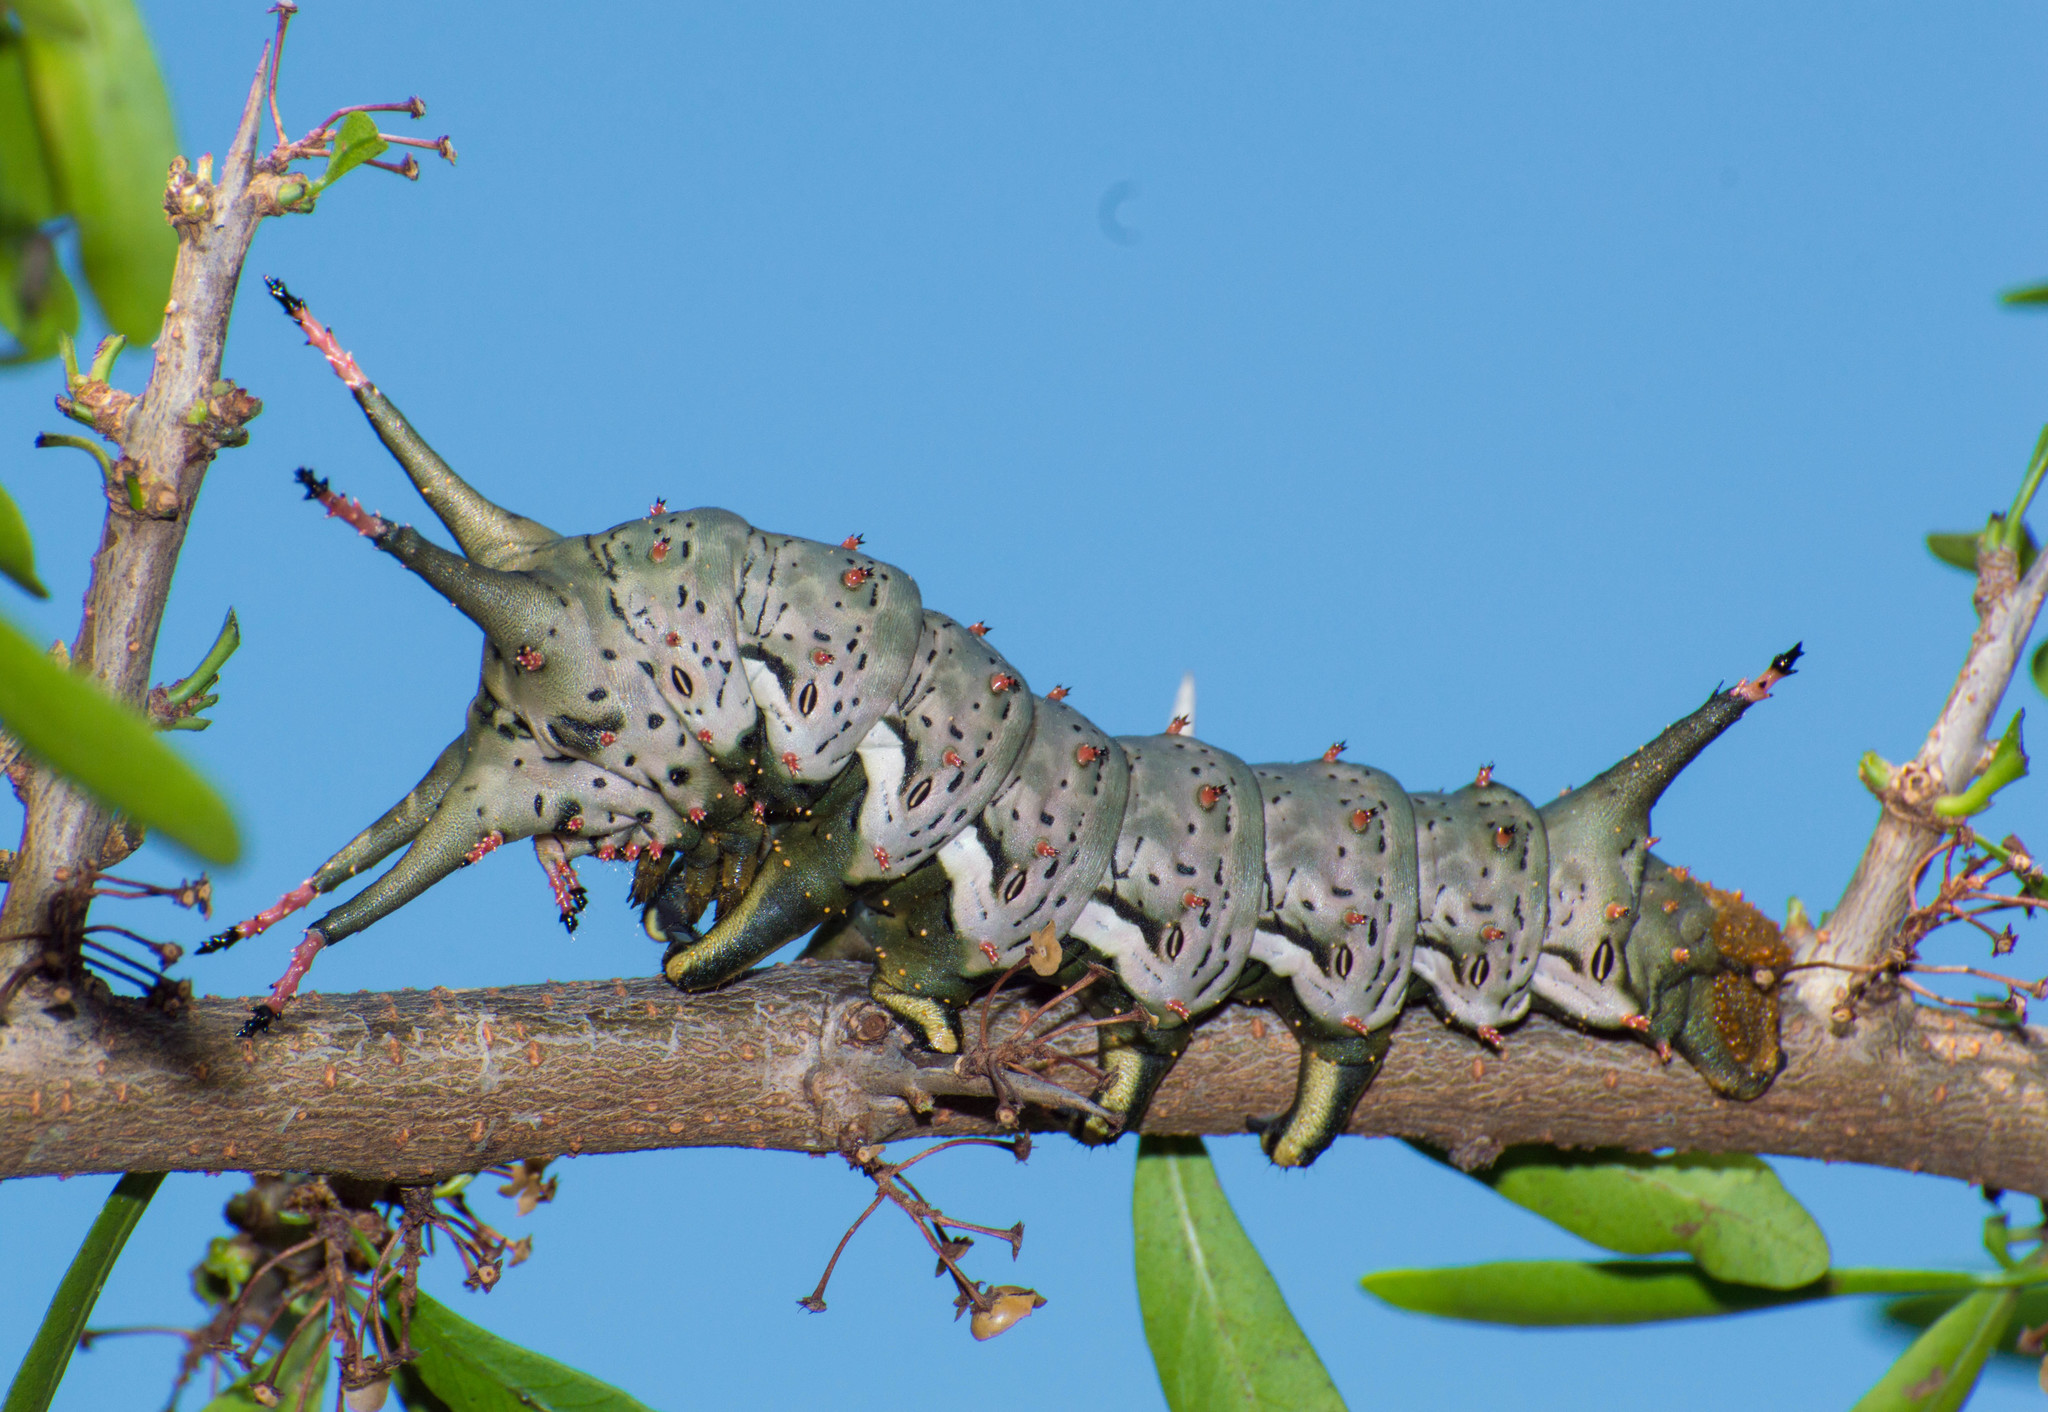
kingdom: Animalia
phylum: Arthropoda
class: Insecta
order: Lepidoptera
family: Saturniidae
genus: Citheronia
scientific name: Citheronia brissoti
